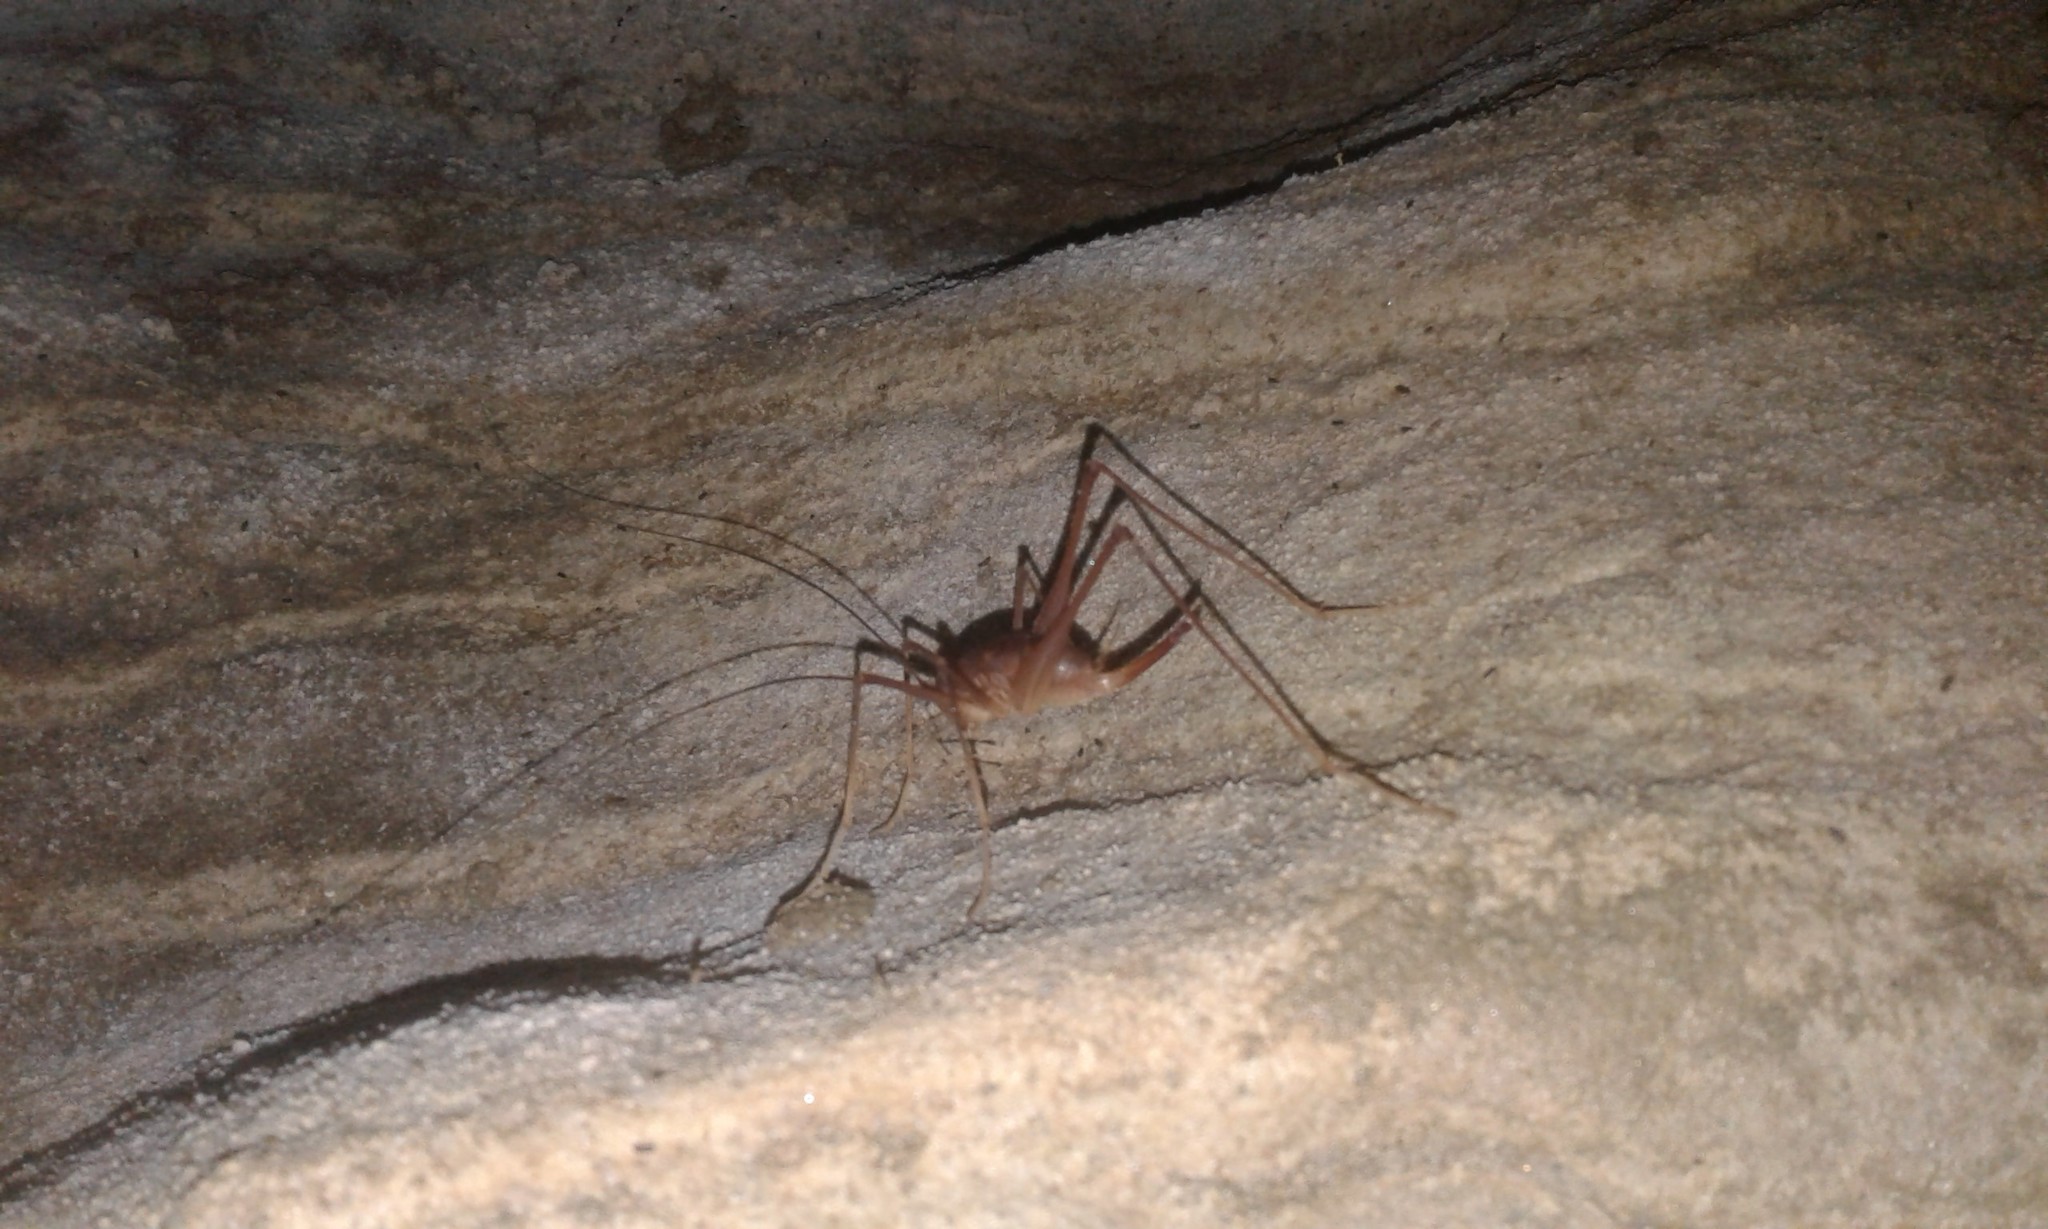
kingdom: Animalia
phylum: Arthropoda
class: Insecta
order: Orthoptera
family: Rhaphidophoridae
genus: Macropathus
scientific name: Macropathus filifer
